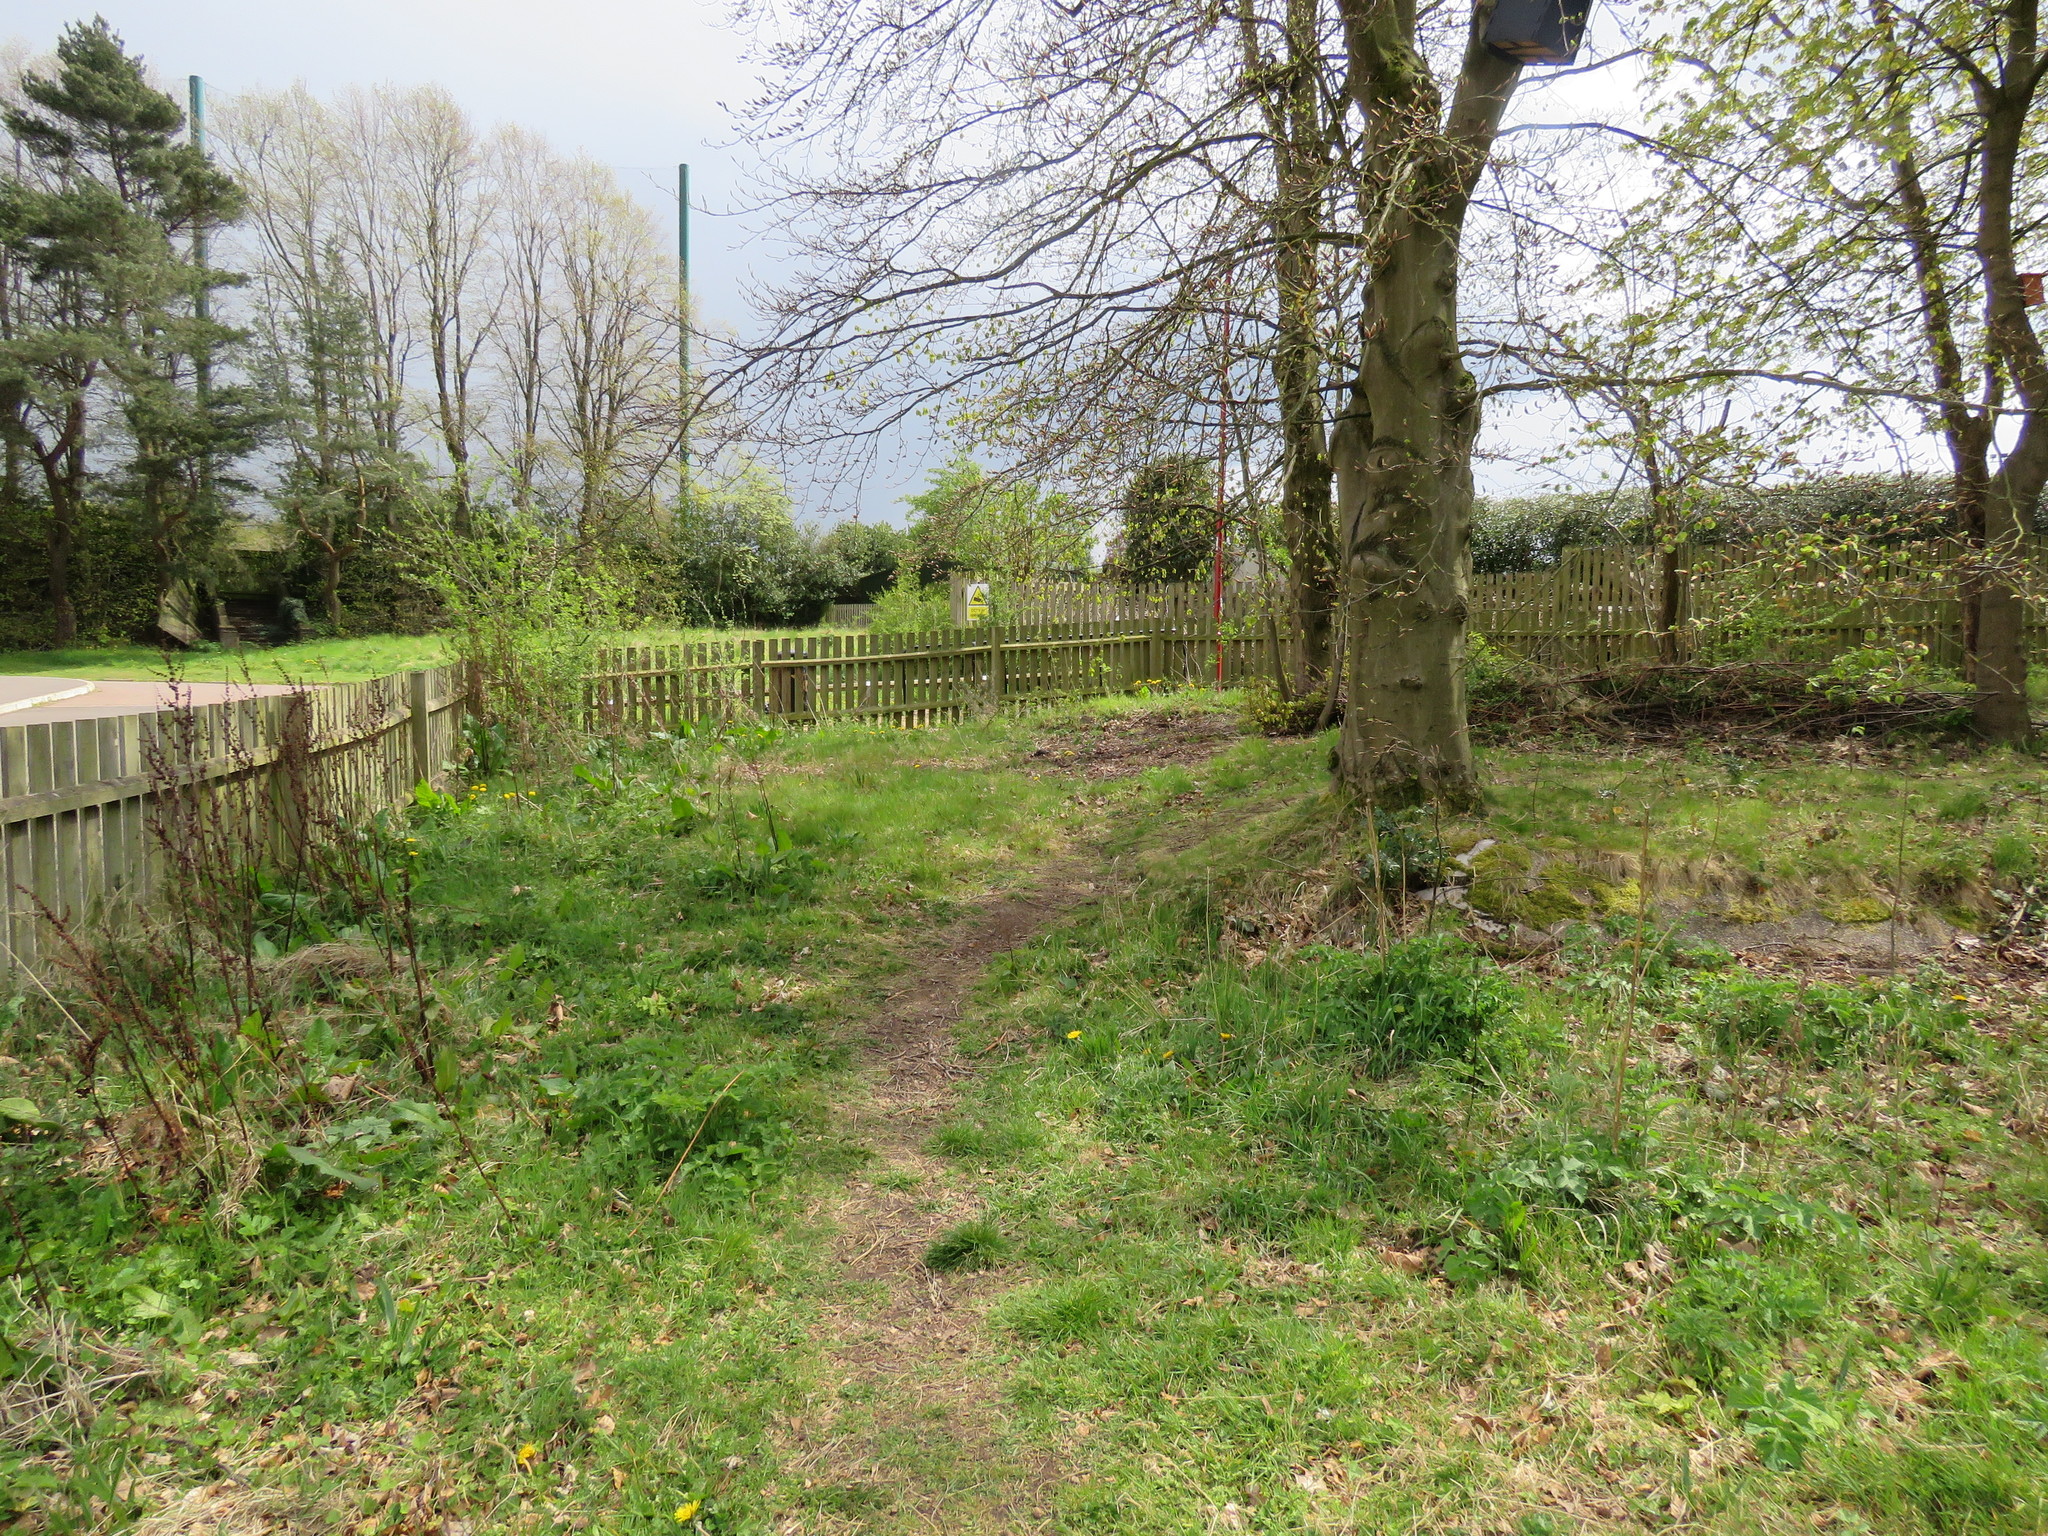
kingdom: Plantae
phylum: Tracheophyta
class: Magnoliopsida
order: Apiales
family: Apiaceae
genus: Heracleum
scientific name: Heracleum sphondylium
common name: Hogweed
